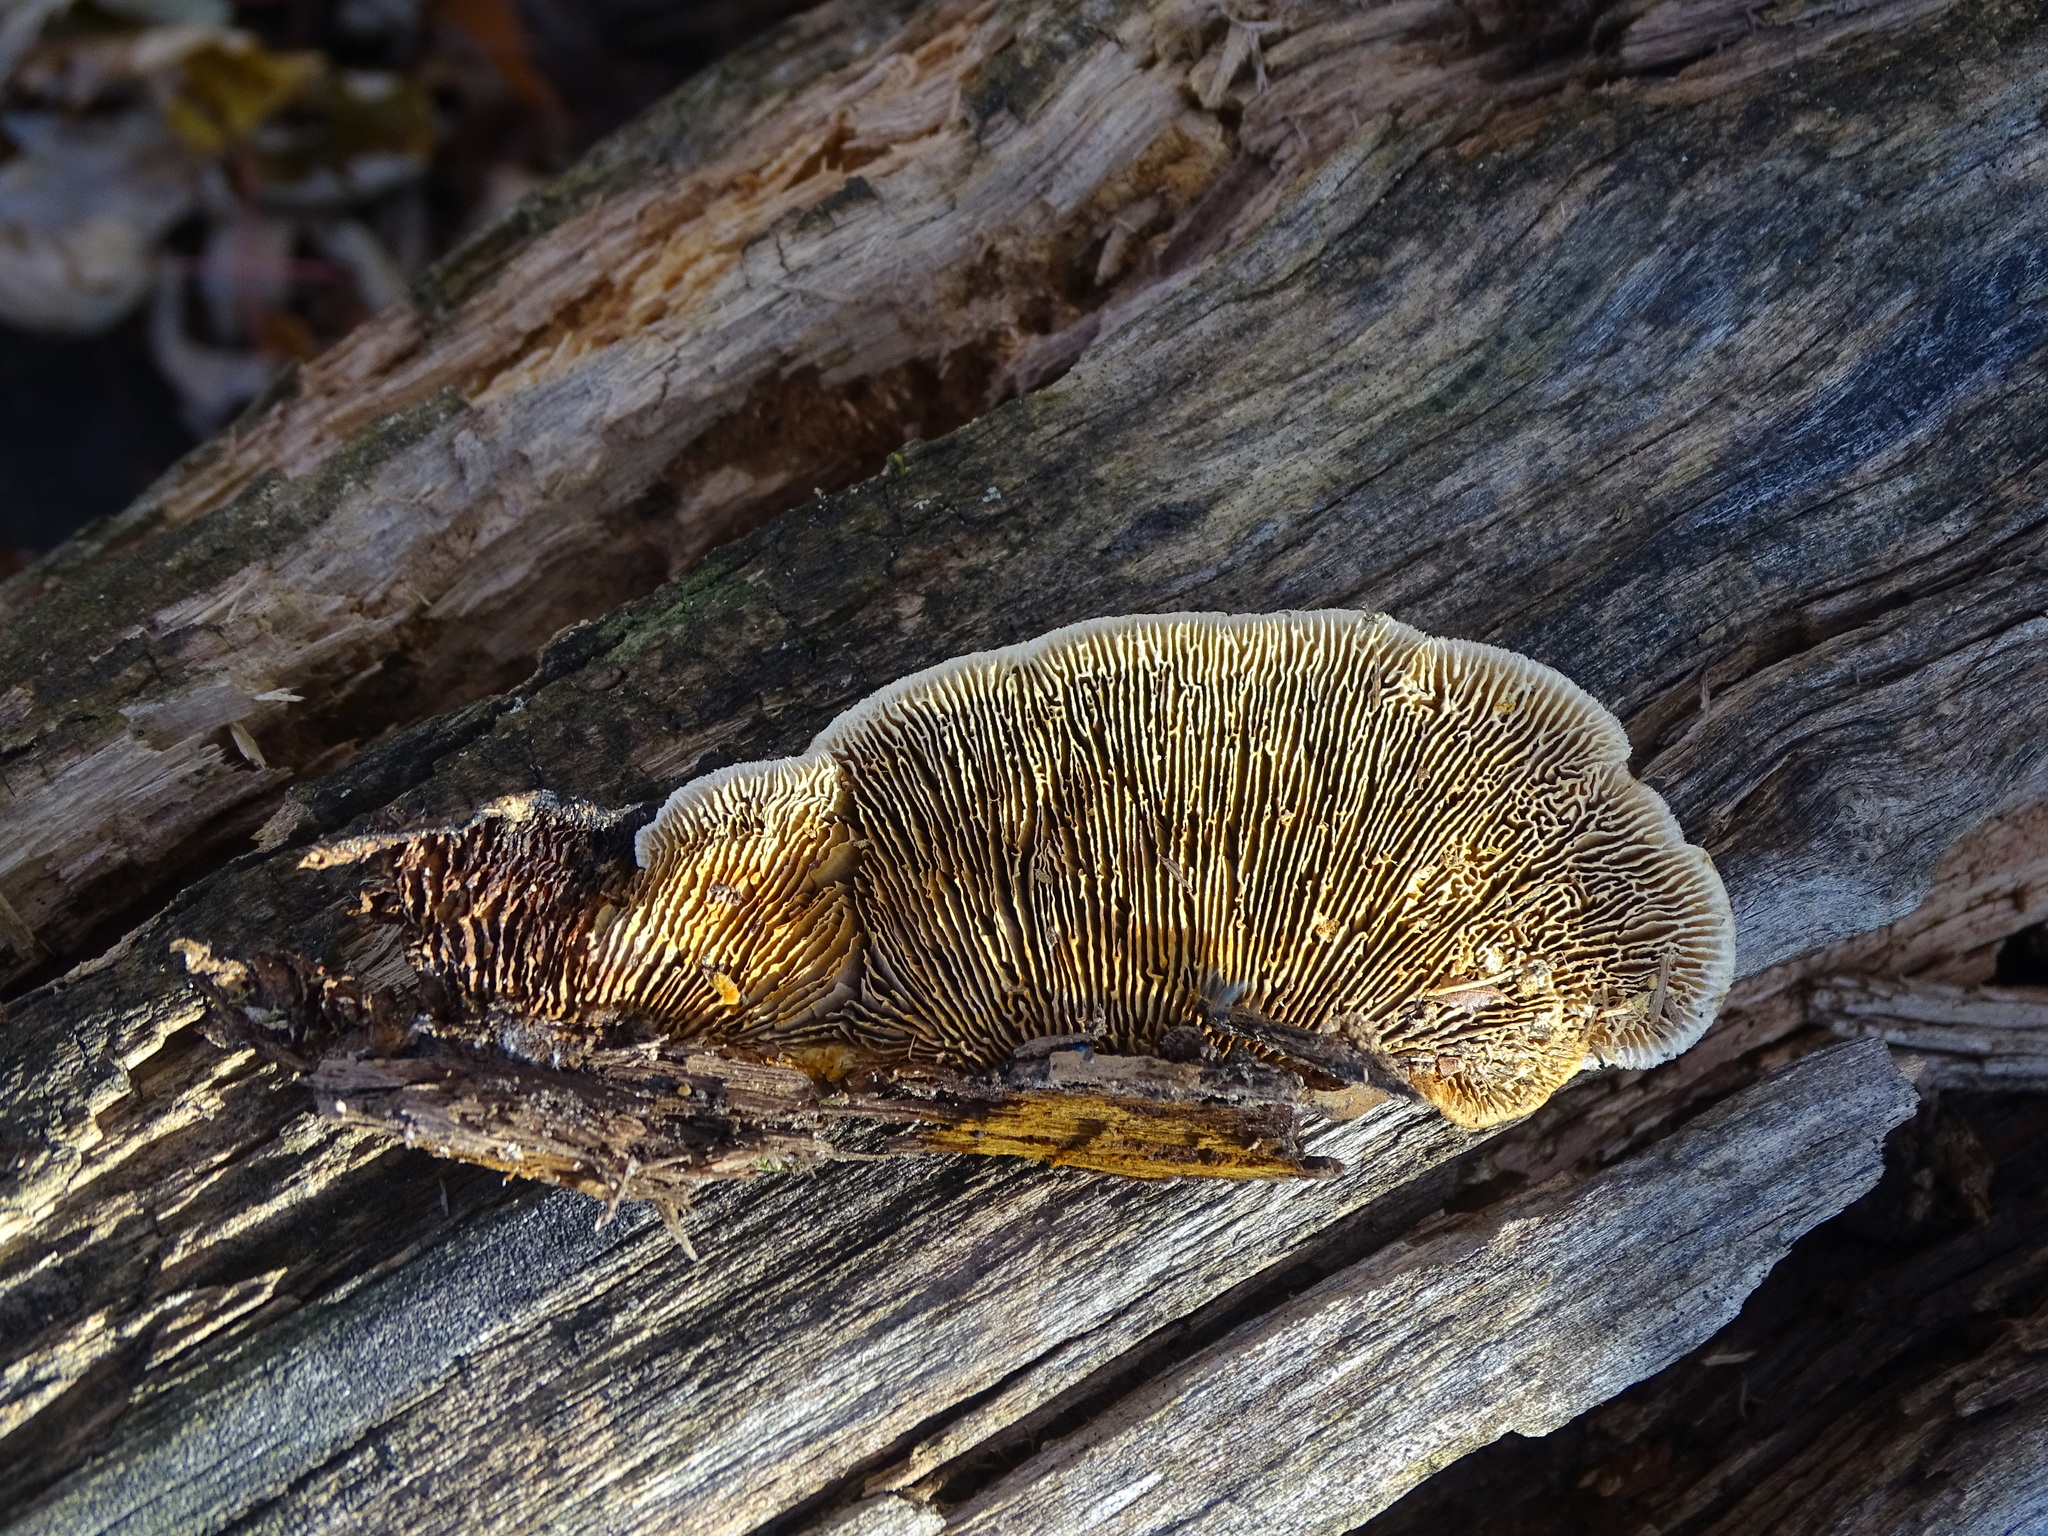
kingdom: Fungi
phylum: Basidiomycota
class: Agaricomycetes
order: Gloeophyllales
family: Gloeophyllaceae
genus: Gloeophyllum
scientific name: Gloeophyllum sepiarium
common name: Conifer mazegill
